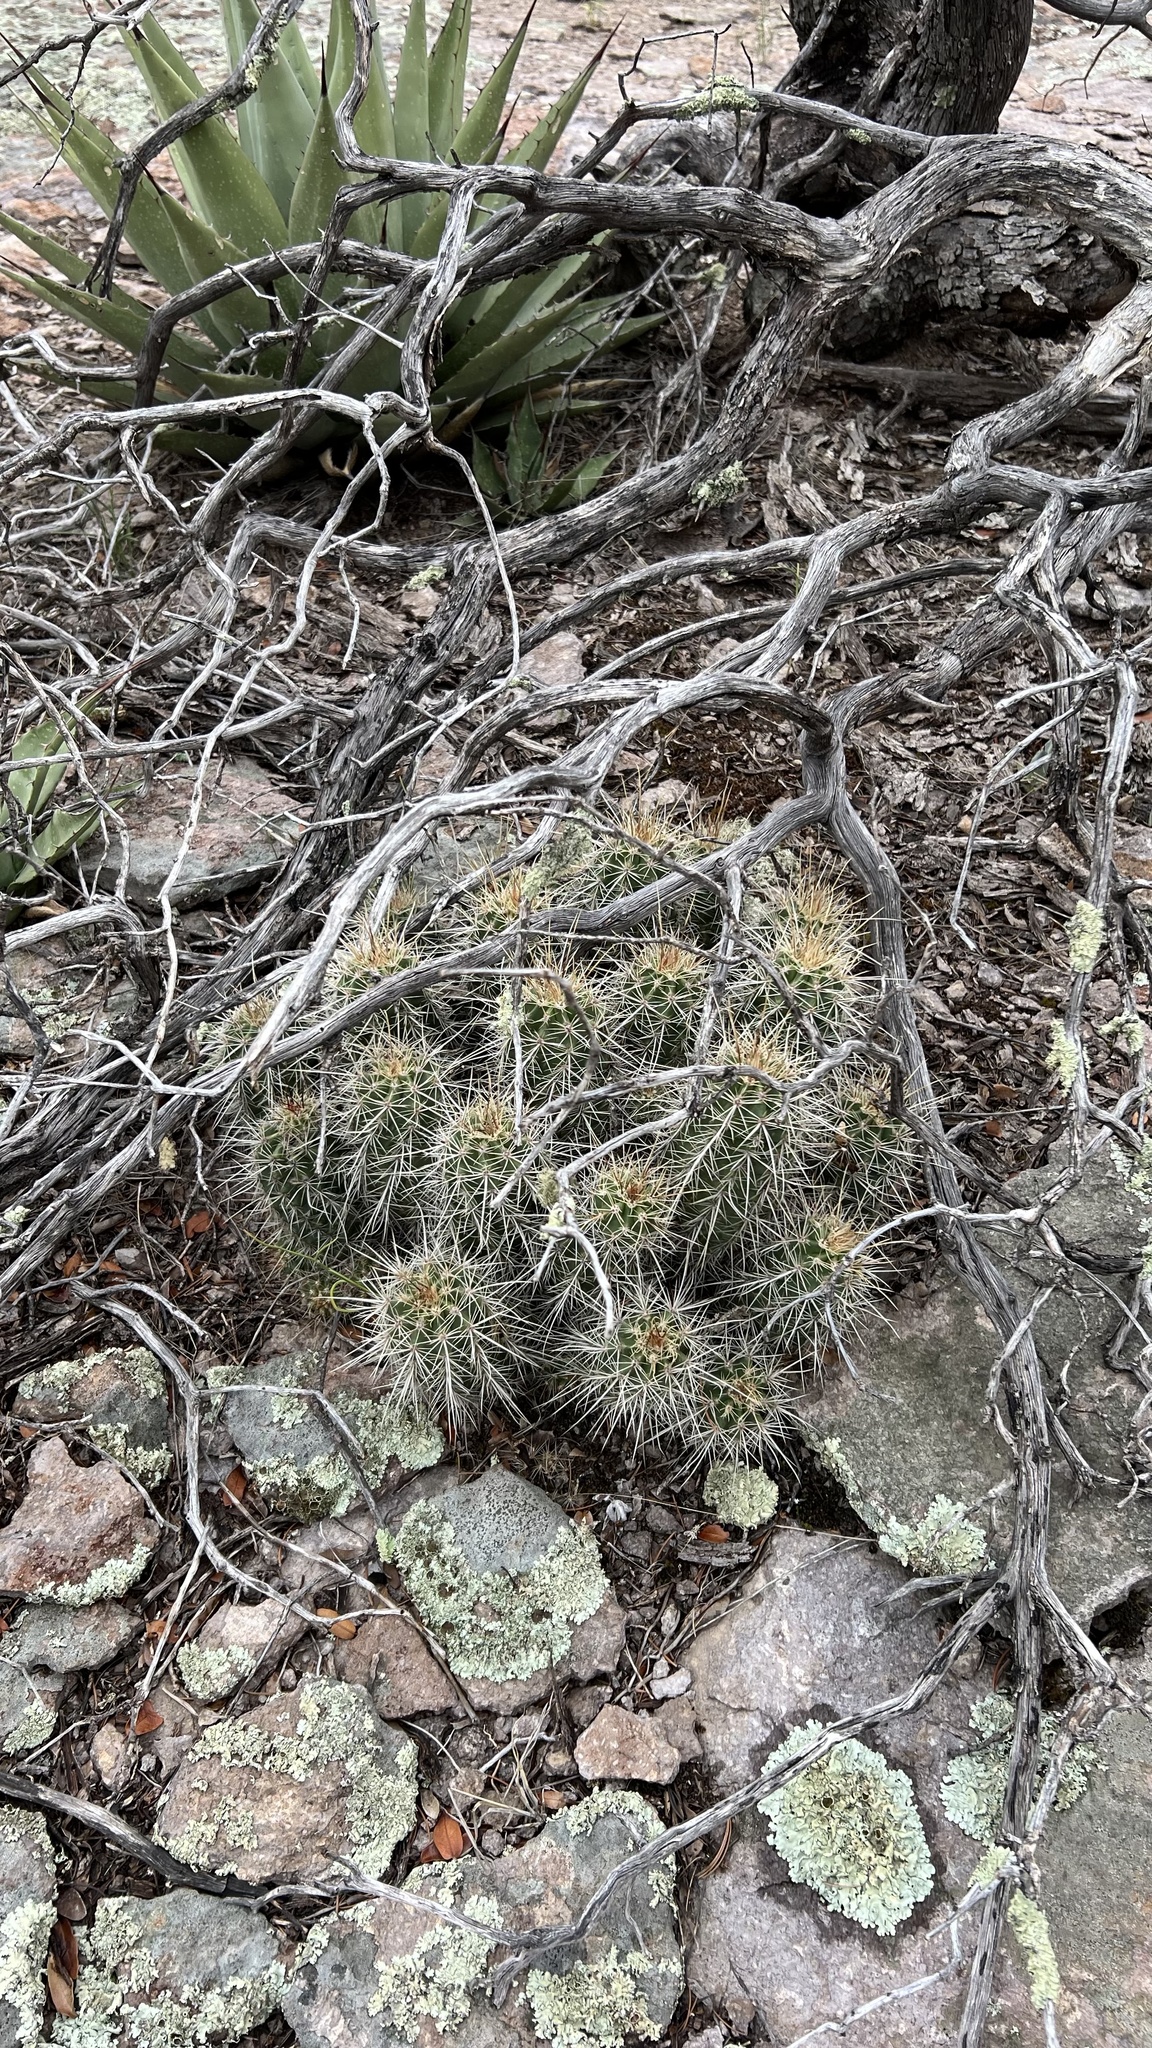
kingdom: Plantae
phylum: Tracheophyta
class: Magnoliopsida
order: Caryophyllales
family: Cactaceae
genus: Echinocereus
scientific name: Echinocereus arizonicus
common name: Arizona hedgehog cactus
